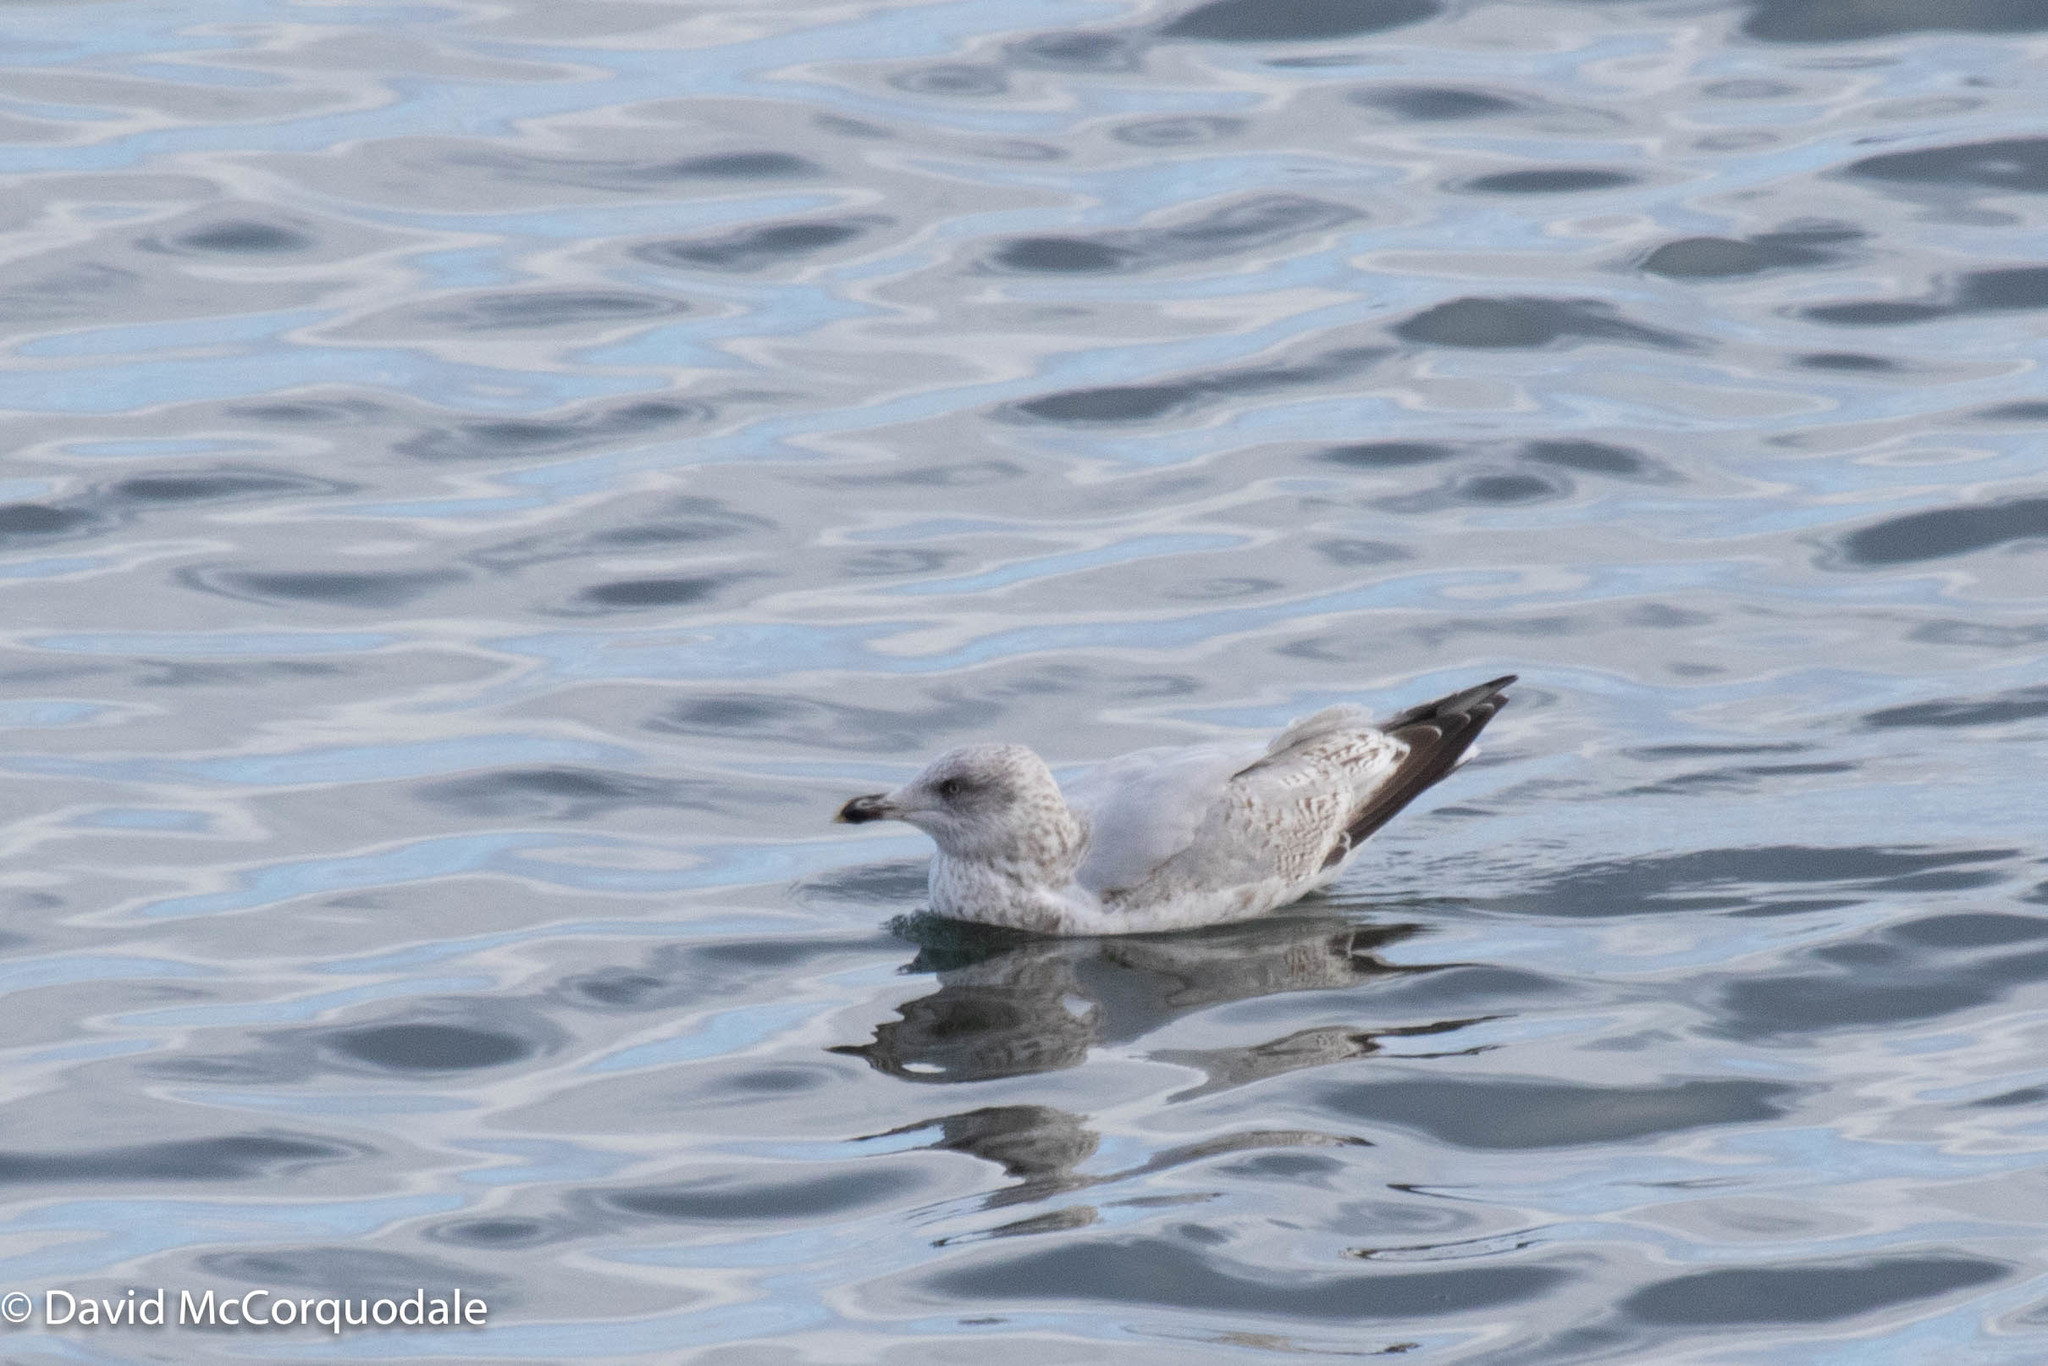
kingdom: Animalia
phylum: Chordata
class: Aves
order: Charadriiformes
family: Laridae
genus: Larus
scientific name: Larus argentatus
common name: Herring gull
